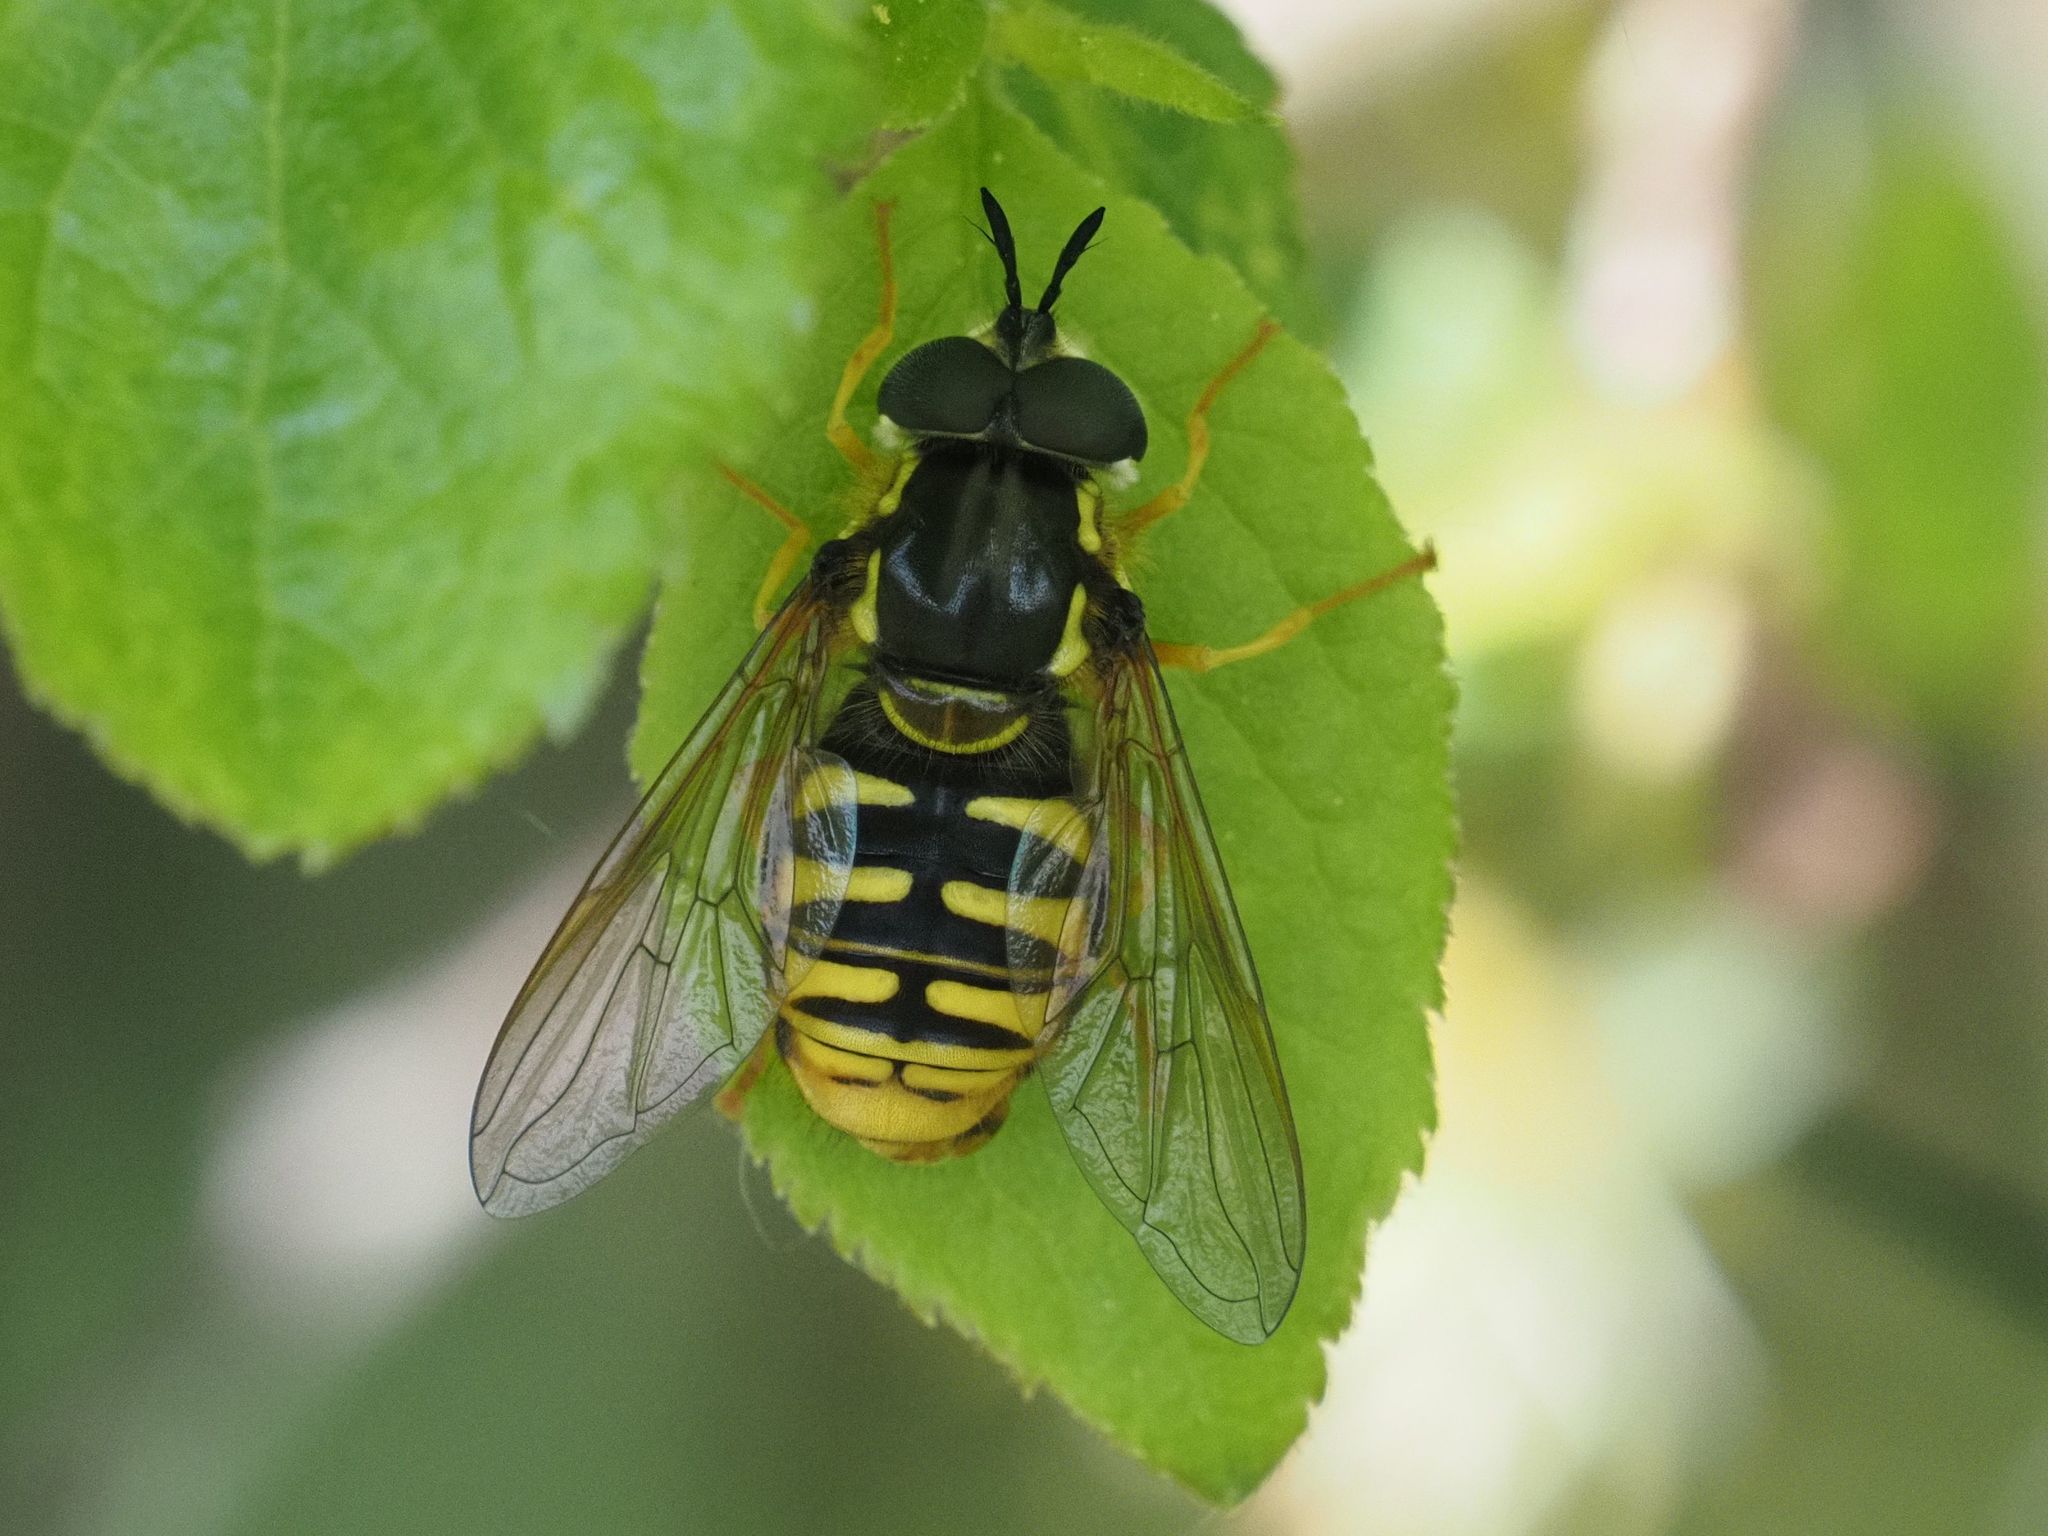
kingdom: Animalia
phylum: Arthropoda
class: Insecta
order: Diptera
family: Syrphidae
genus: Chrysotoxum
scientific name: Chrysotoxum cautum
